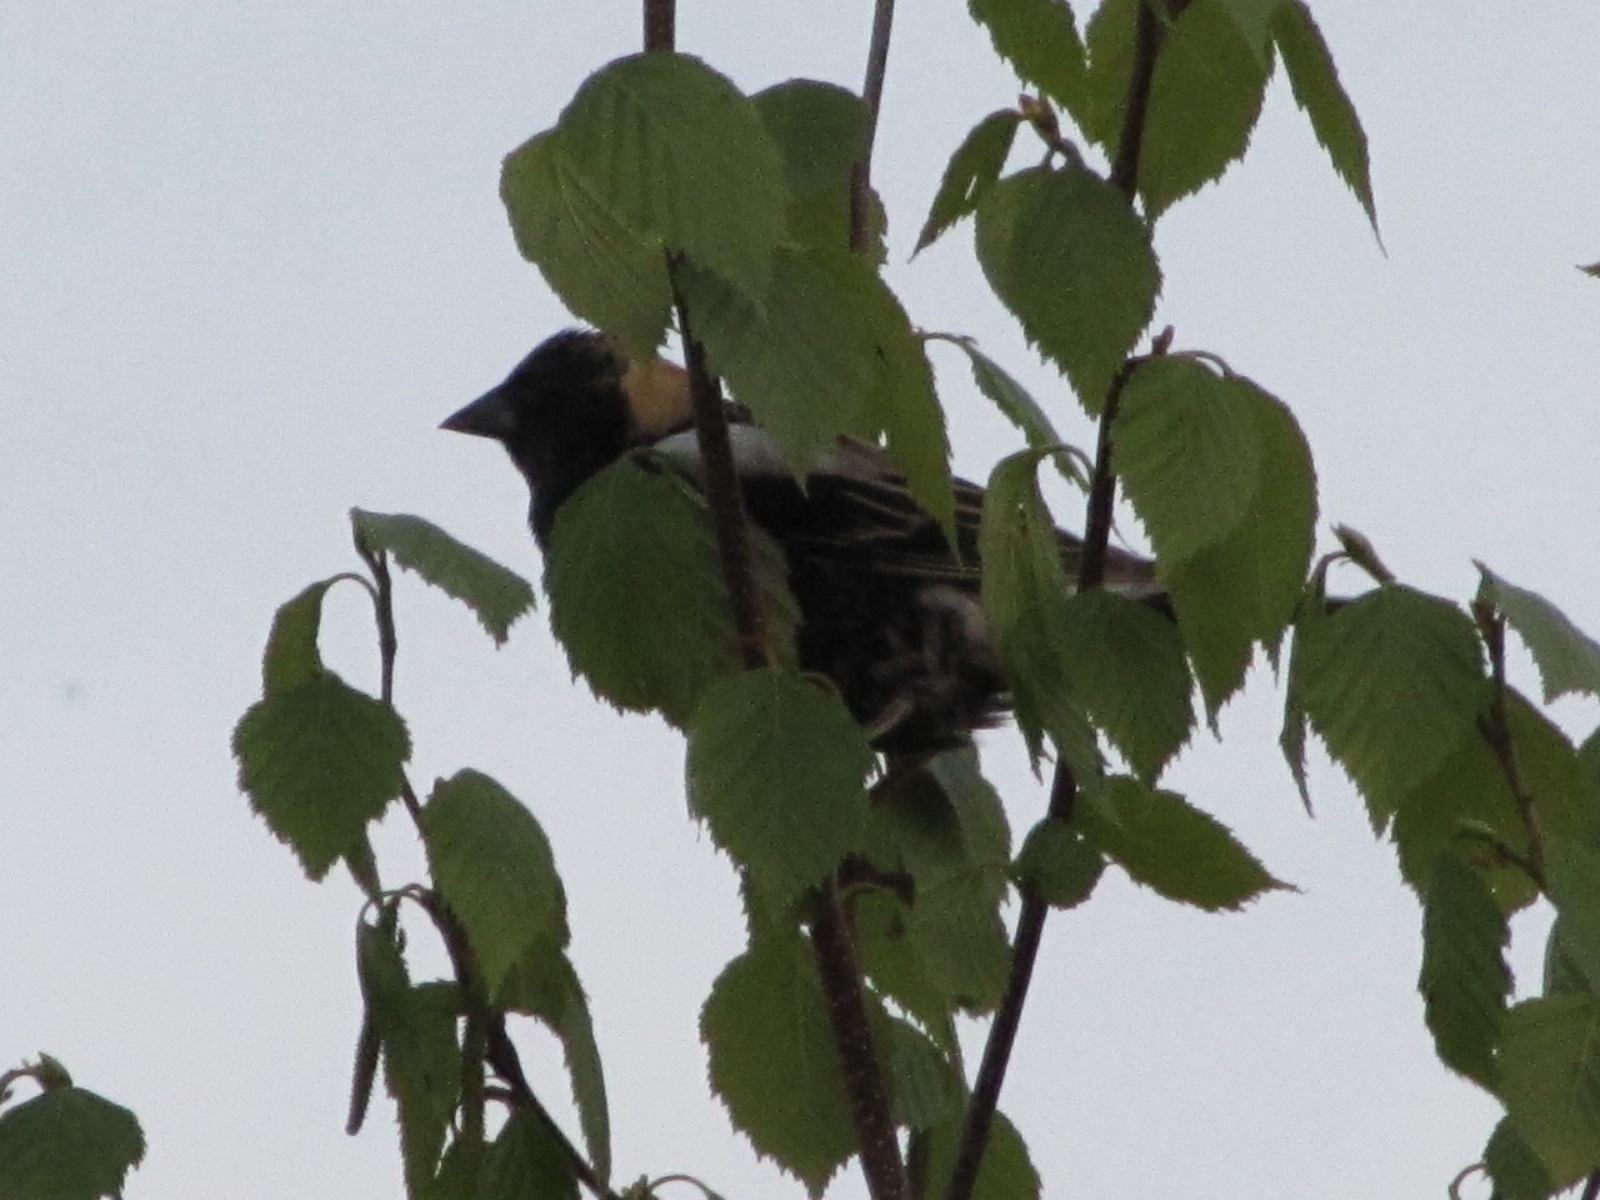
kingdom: Animalia
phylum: Chordata
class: Aves
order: Passeriformes
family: Icteridae
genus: Dolichonyx
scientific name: Dolichonyx oryzivorus
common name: Bobolink
